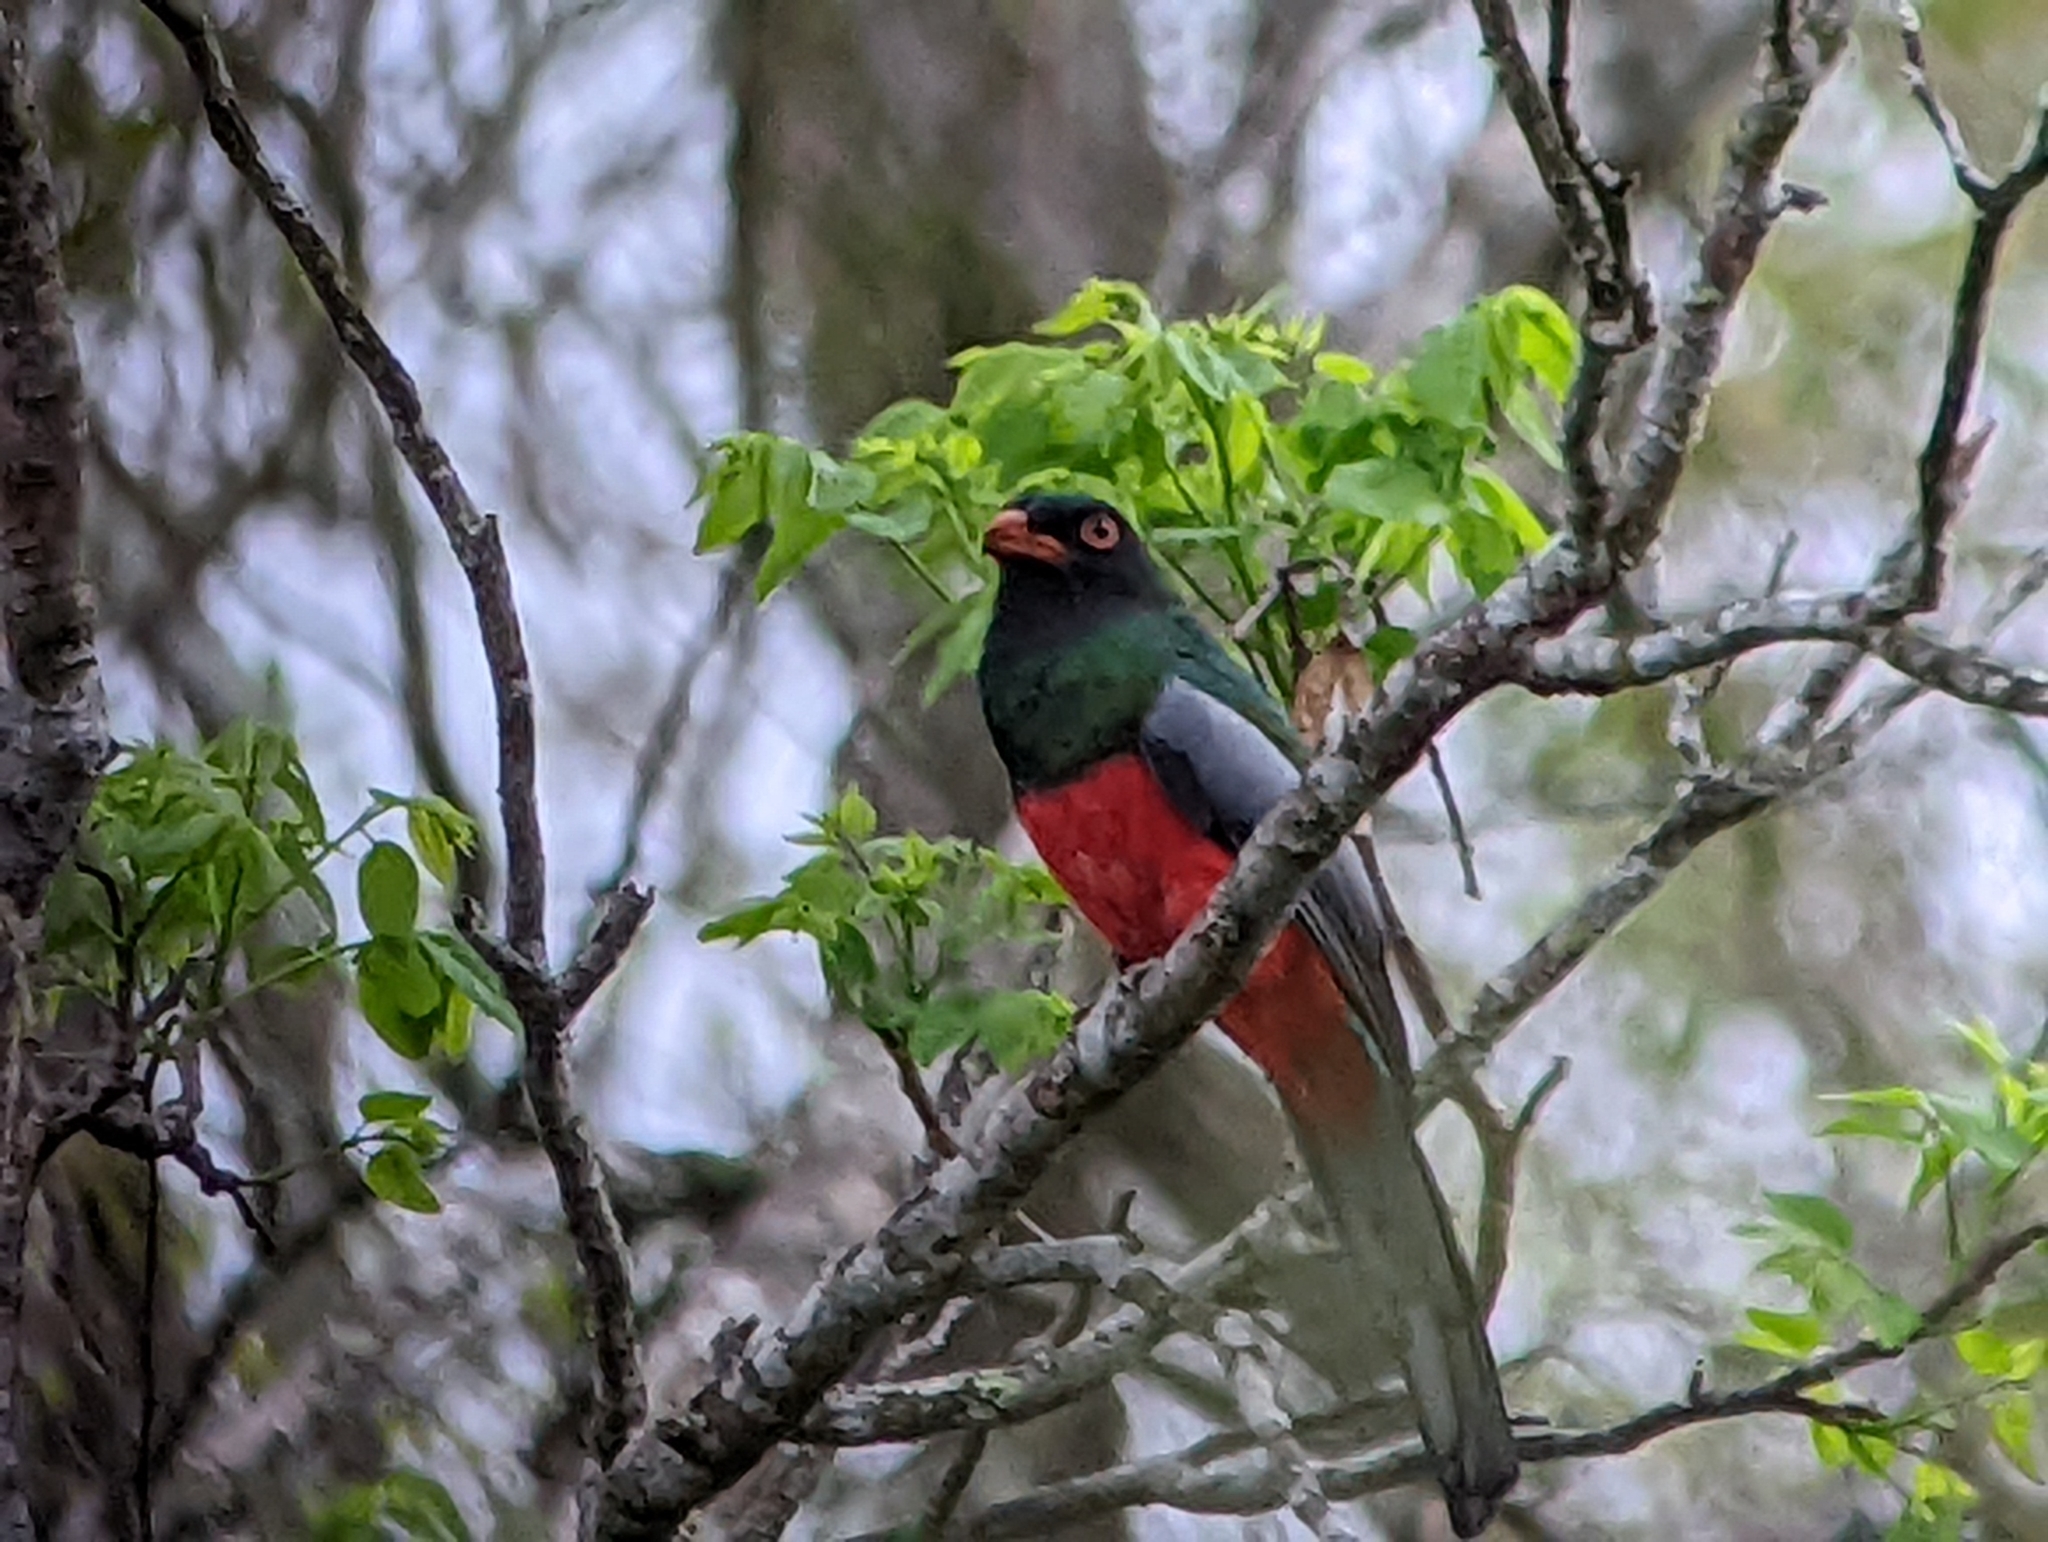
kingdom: Animalia
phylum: Chordata
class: Aves
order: Trogoniformes
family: Trogonidae
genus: Trogon
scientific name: Trogon massena
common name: Slaty-tailed trogon
